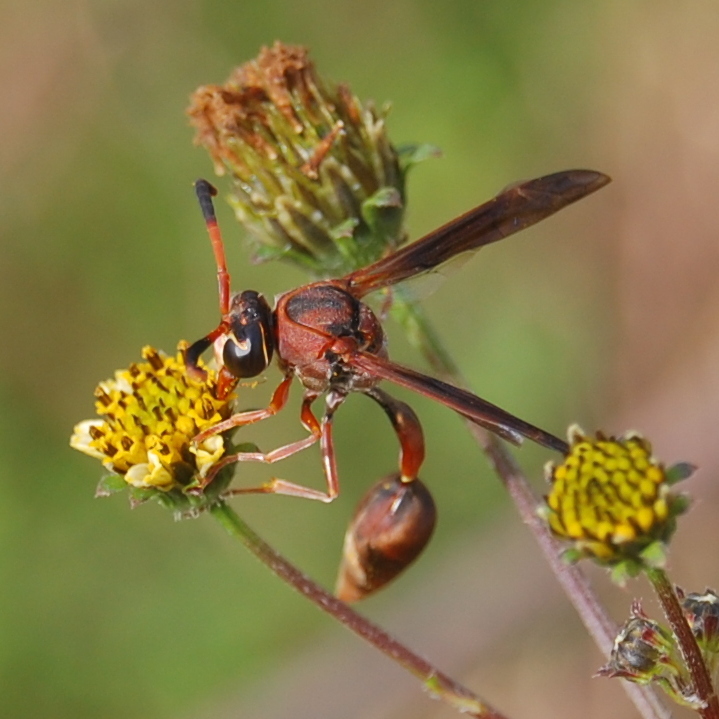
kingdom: Animalia
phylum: Arthropoda
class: Insecta
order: Hymenoptera
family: Eumenidae
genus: Zeta
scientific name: Zeta argillaceum
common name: Potter wasp
